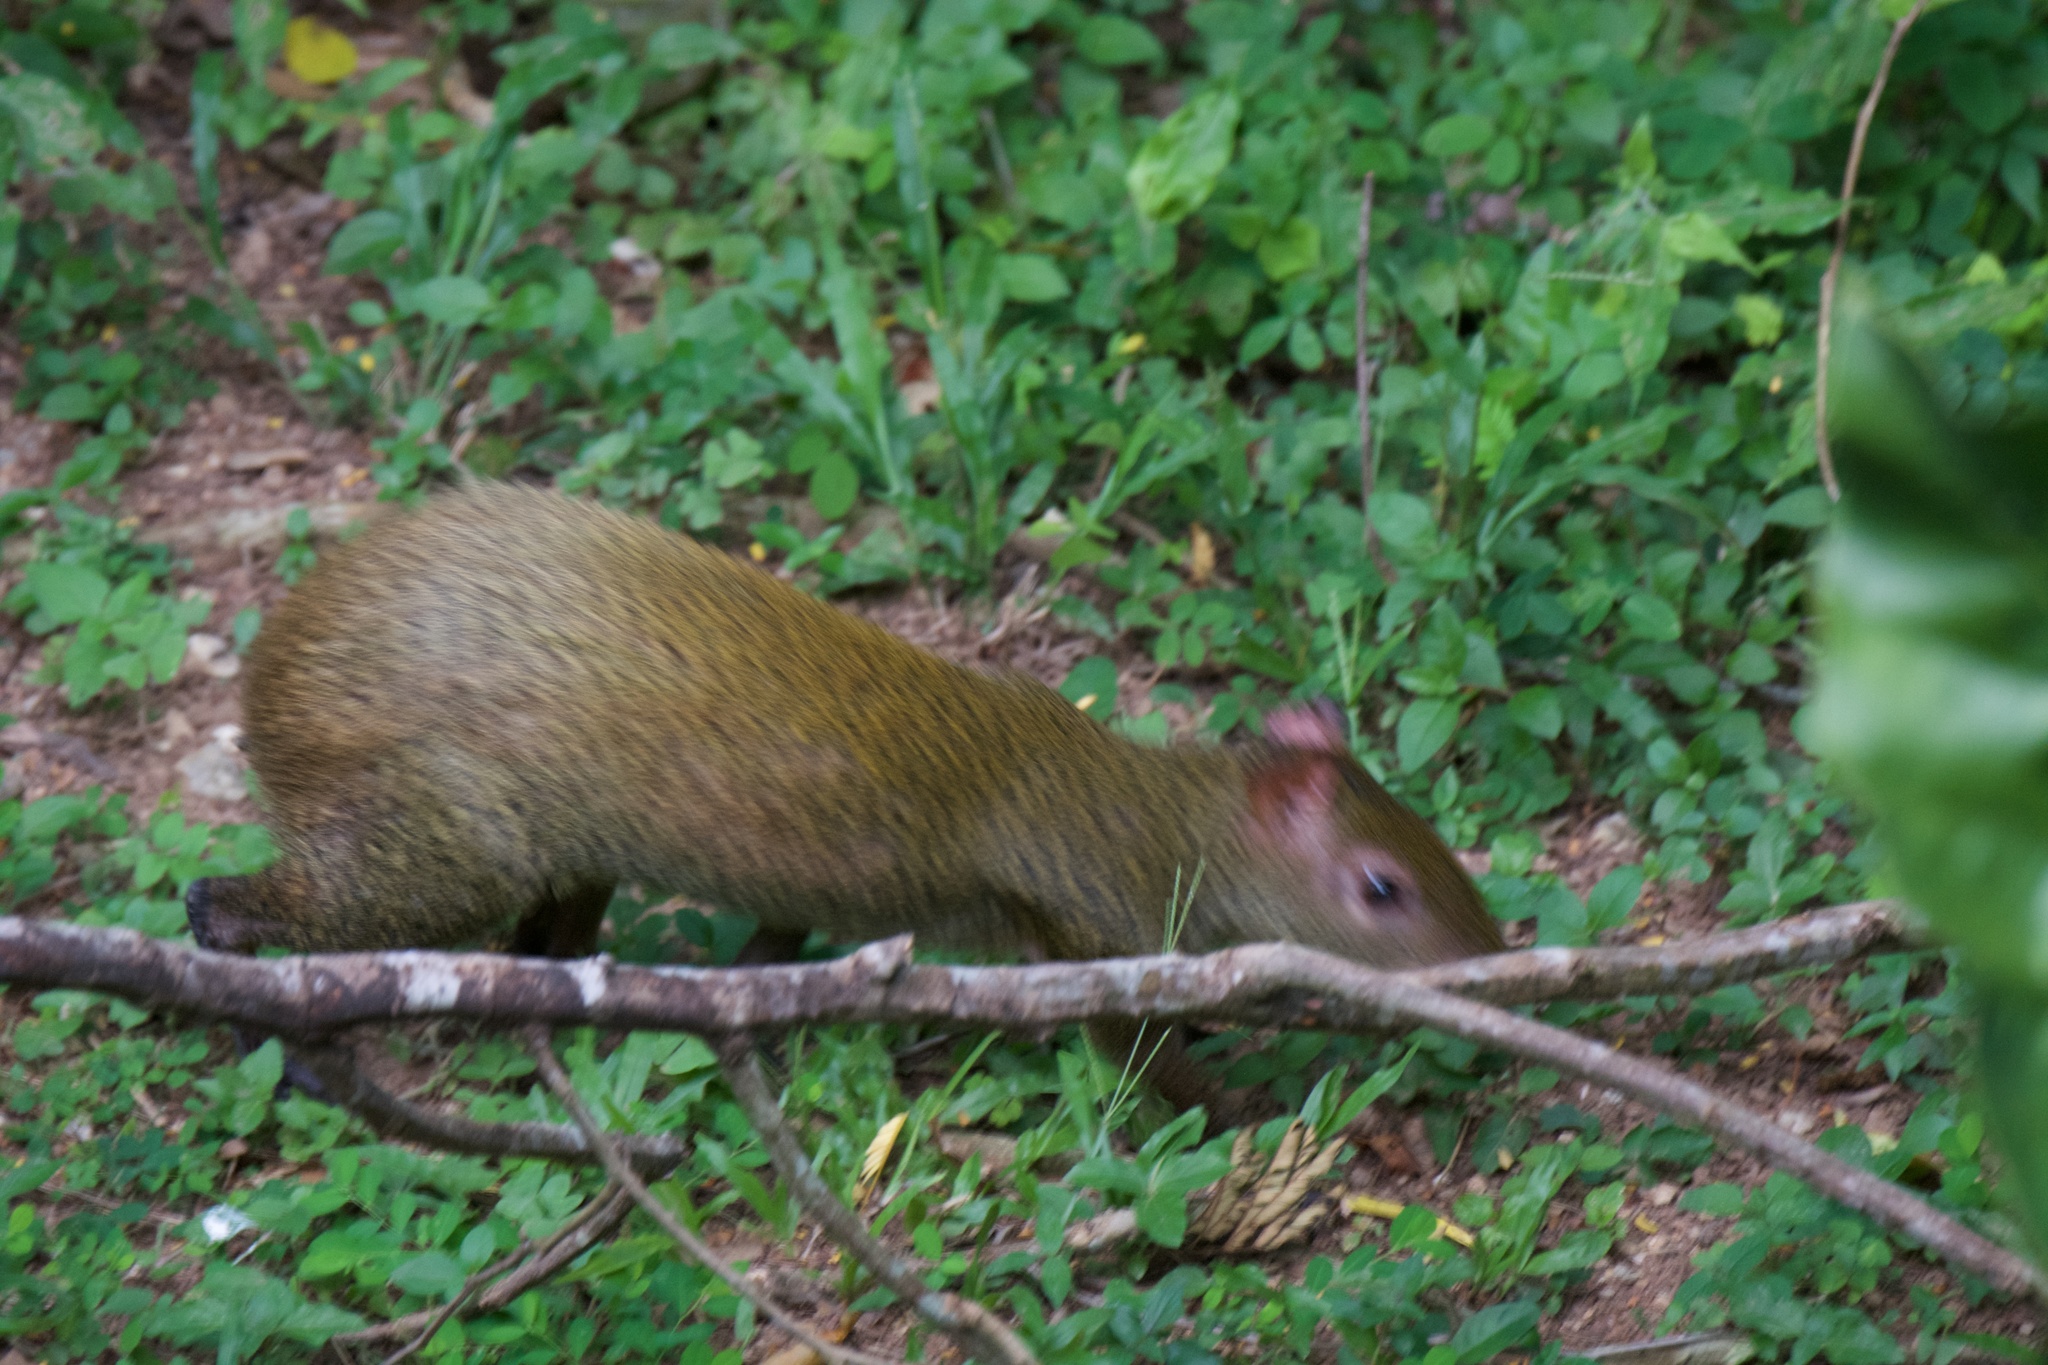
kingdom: Animalia
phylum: Chordata
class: Mammalia
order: Rodentia
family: Dasyproctidae
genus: Dasyprocta
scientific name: Dasyprocta punctata
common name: Central american agouti
